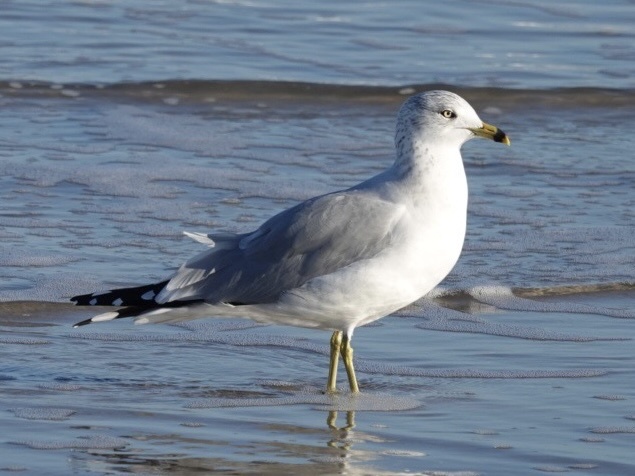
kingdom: Animalia
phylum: Chordata
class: Aves
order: Charadriiformes
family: Laridae
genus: Larus
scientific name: Larus delawarensis
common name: Ring-billed gull
